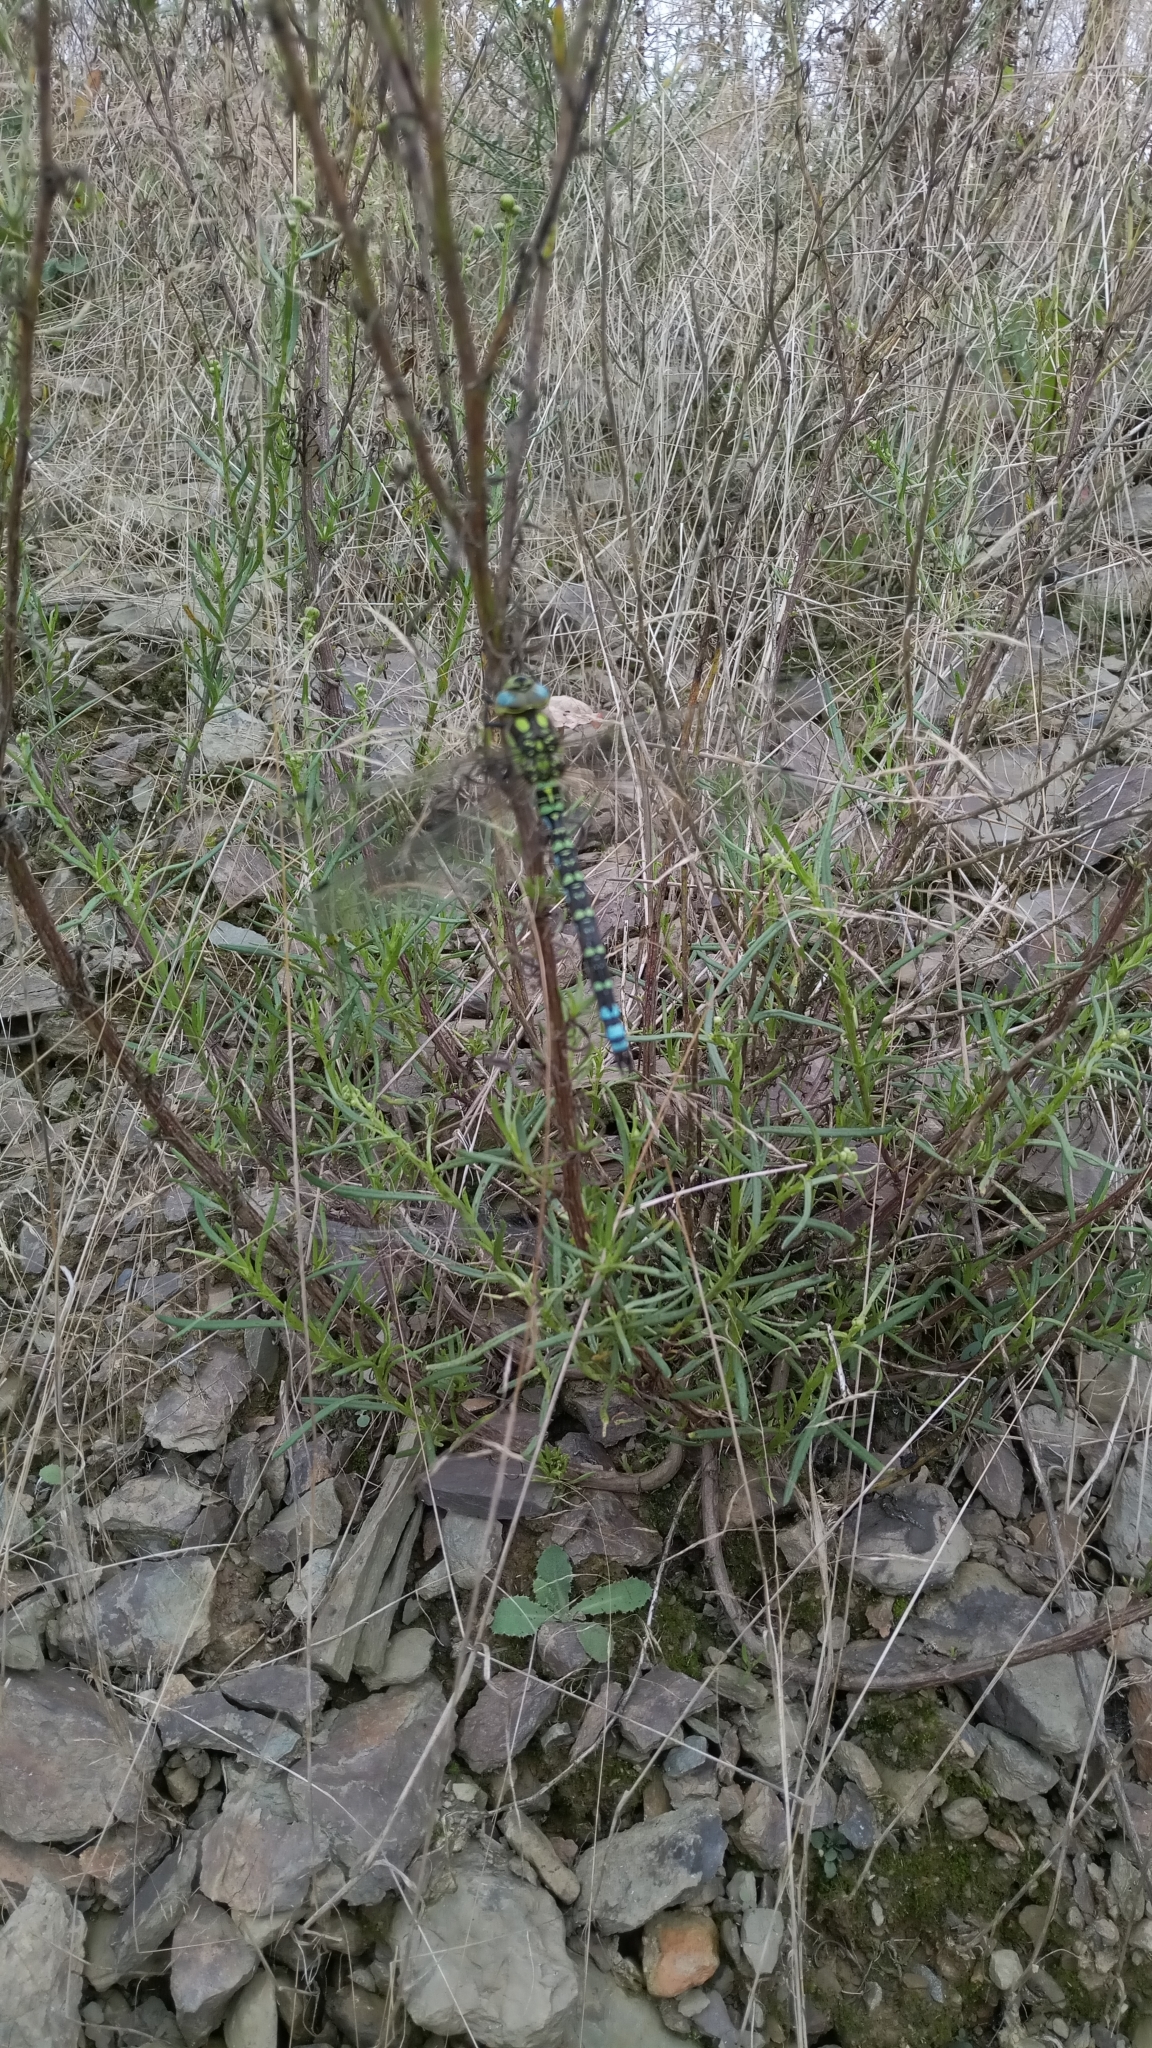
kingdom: Animalia
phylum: Arthropoda
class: Insecta
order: Odonata
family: Aeshnidae
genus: Aeshna
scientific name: Aeshna cyanea
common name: Southern hawker
